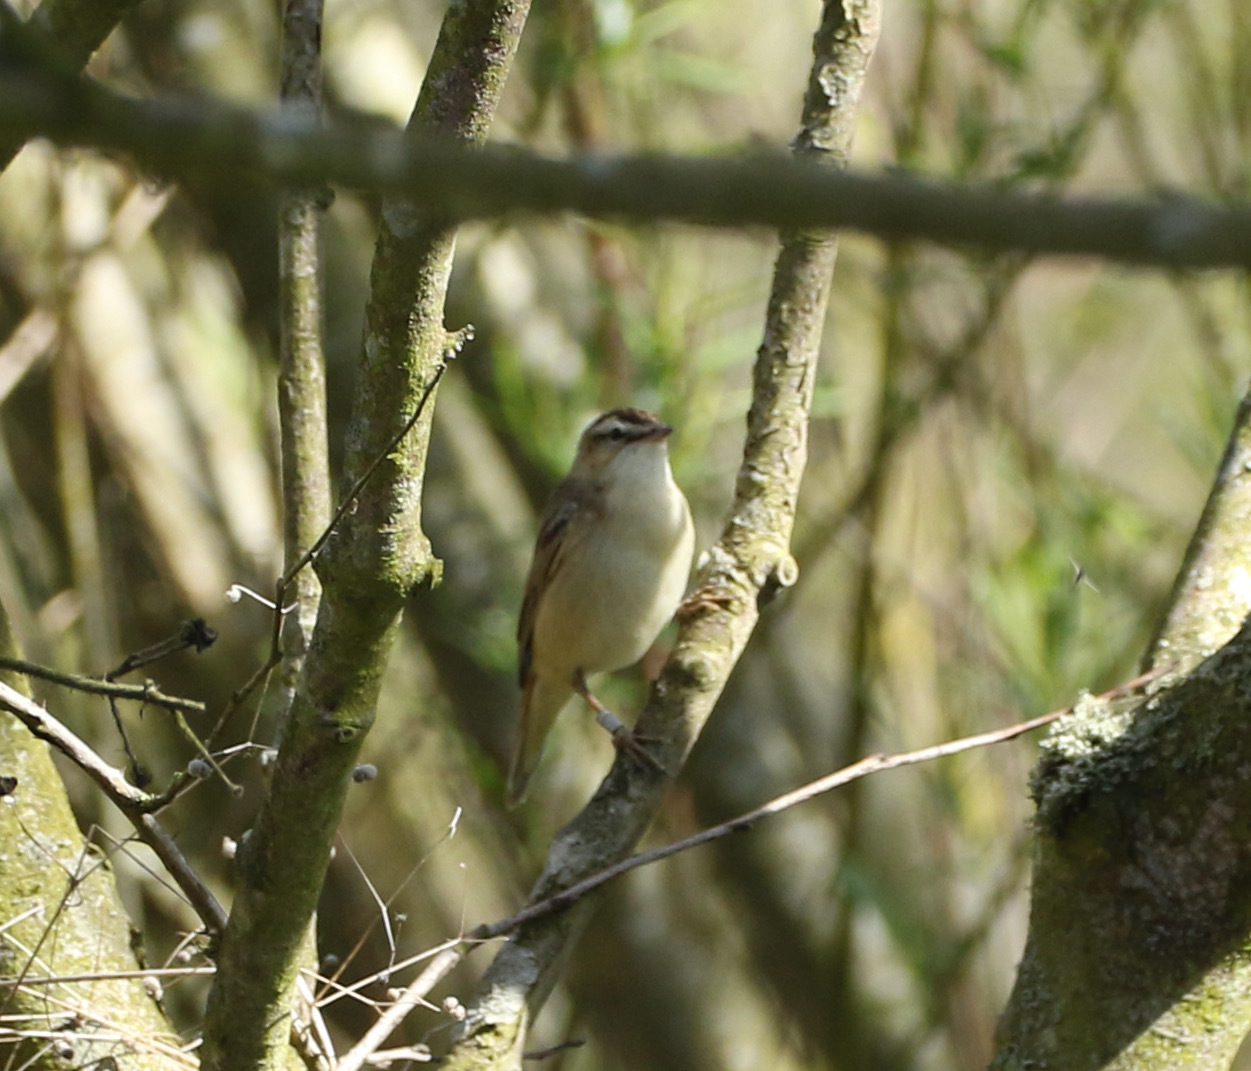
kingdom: Animalia
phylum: Chordata
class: Aves
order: Passeriformes
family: Acrocephalidae
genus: Acrocephalus
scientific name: Acrocephalus schoenobaenus
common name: Sedge warbler
